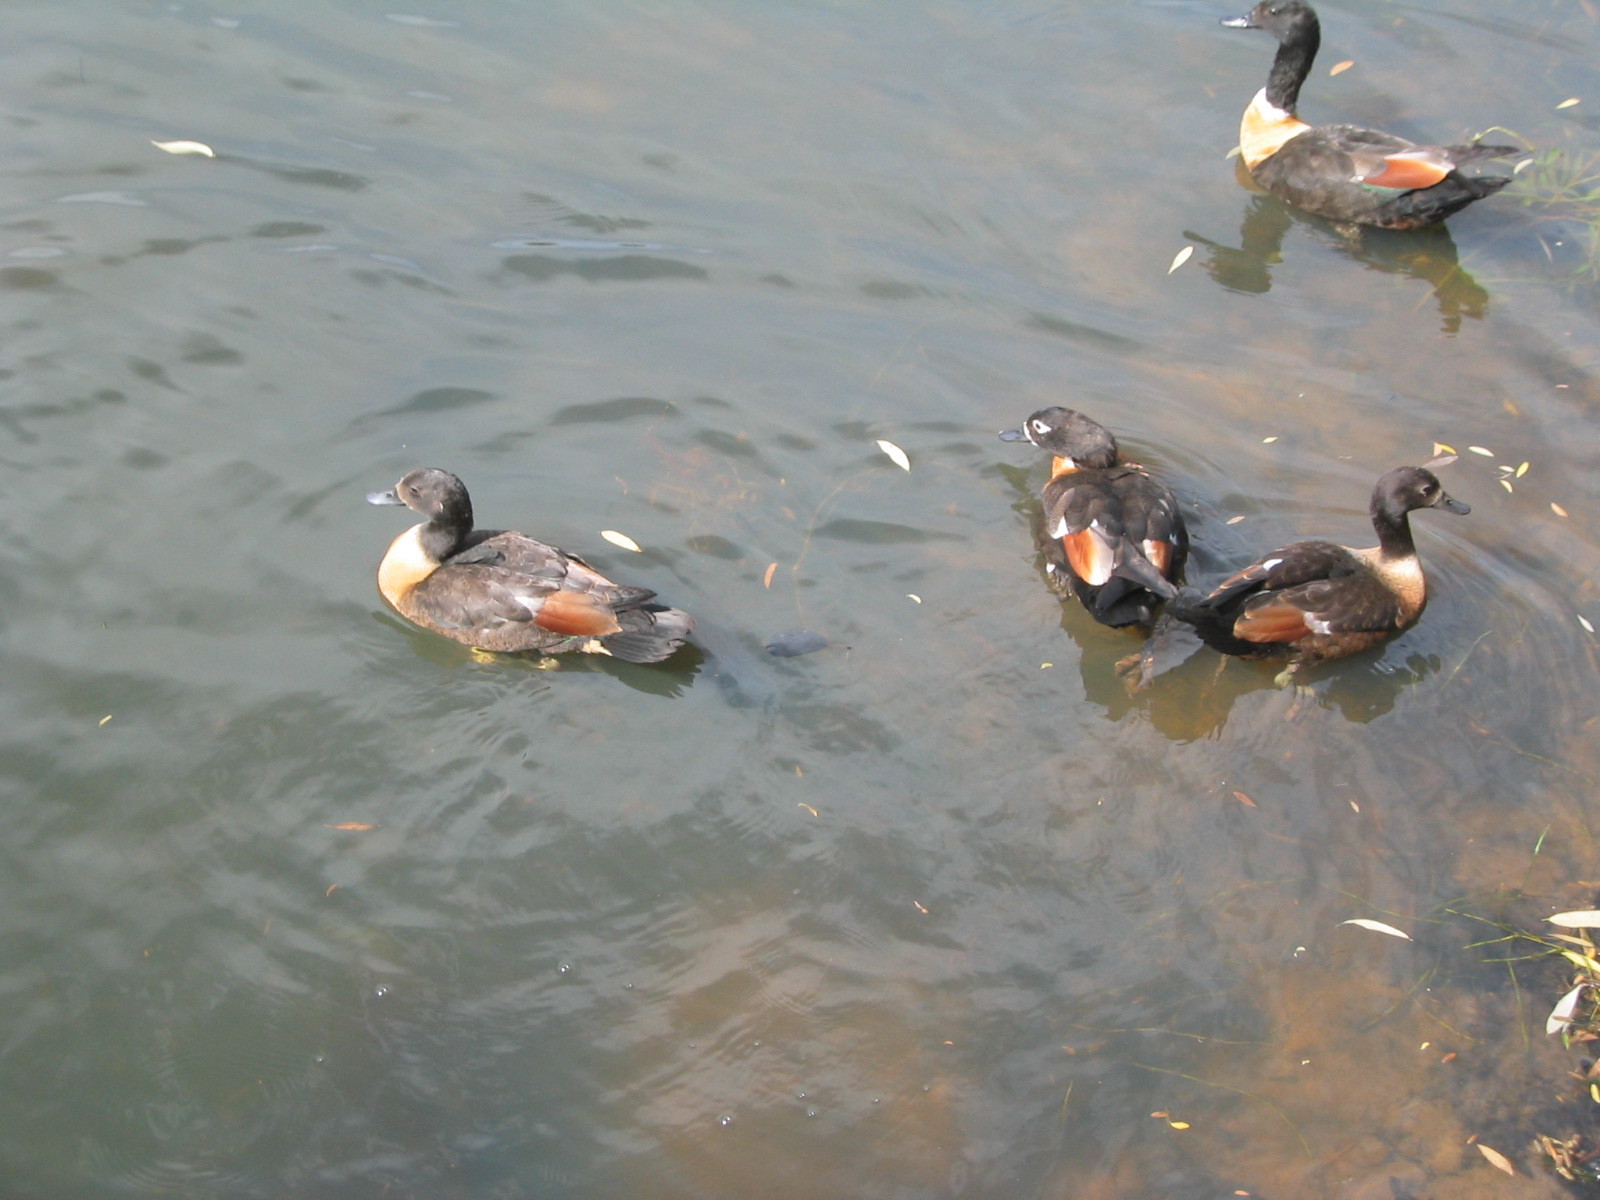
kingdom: Animalia
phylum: Chordata
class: Aves
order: Anseriformes
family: Anatidae
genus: Tadorna
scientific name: Tadorna tadornoides
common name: Australian shelduck
